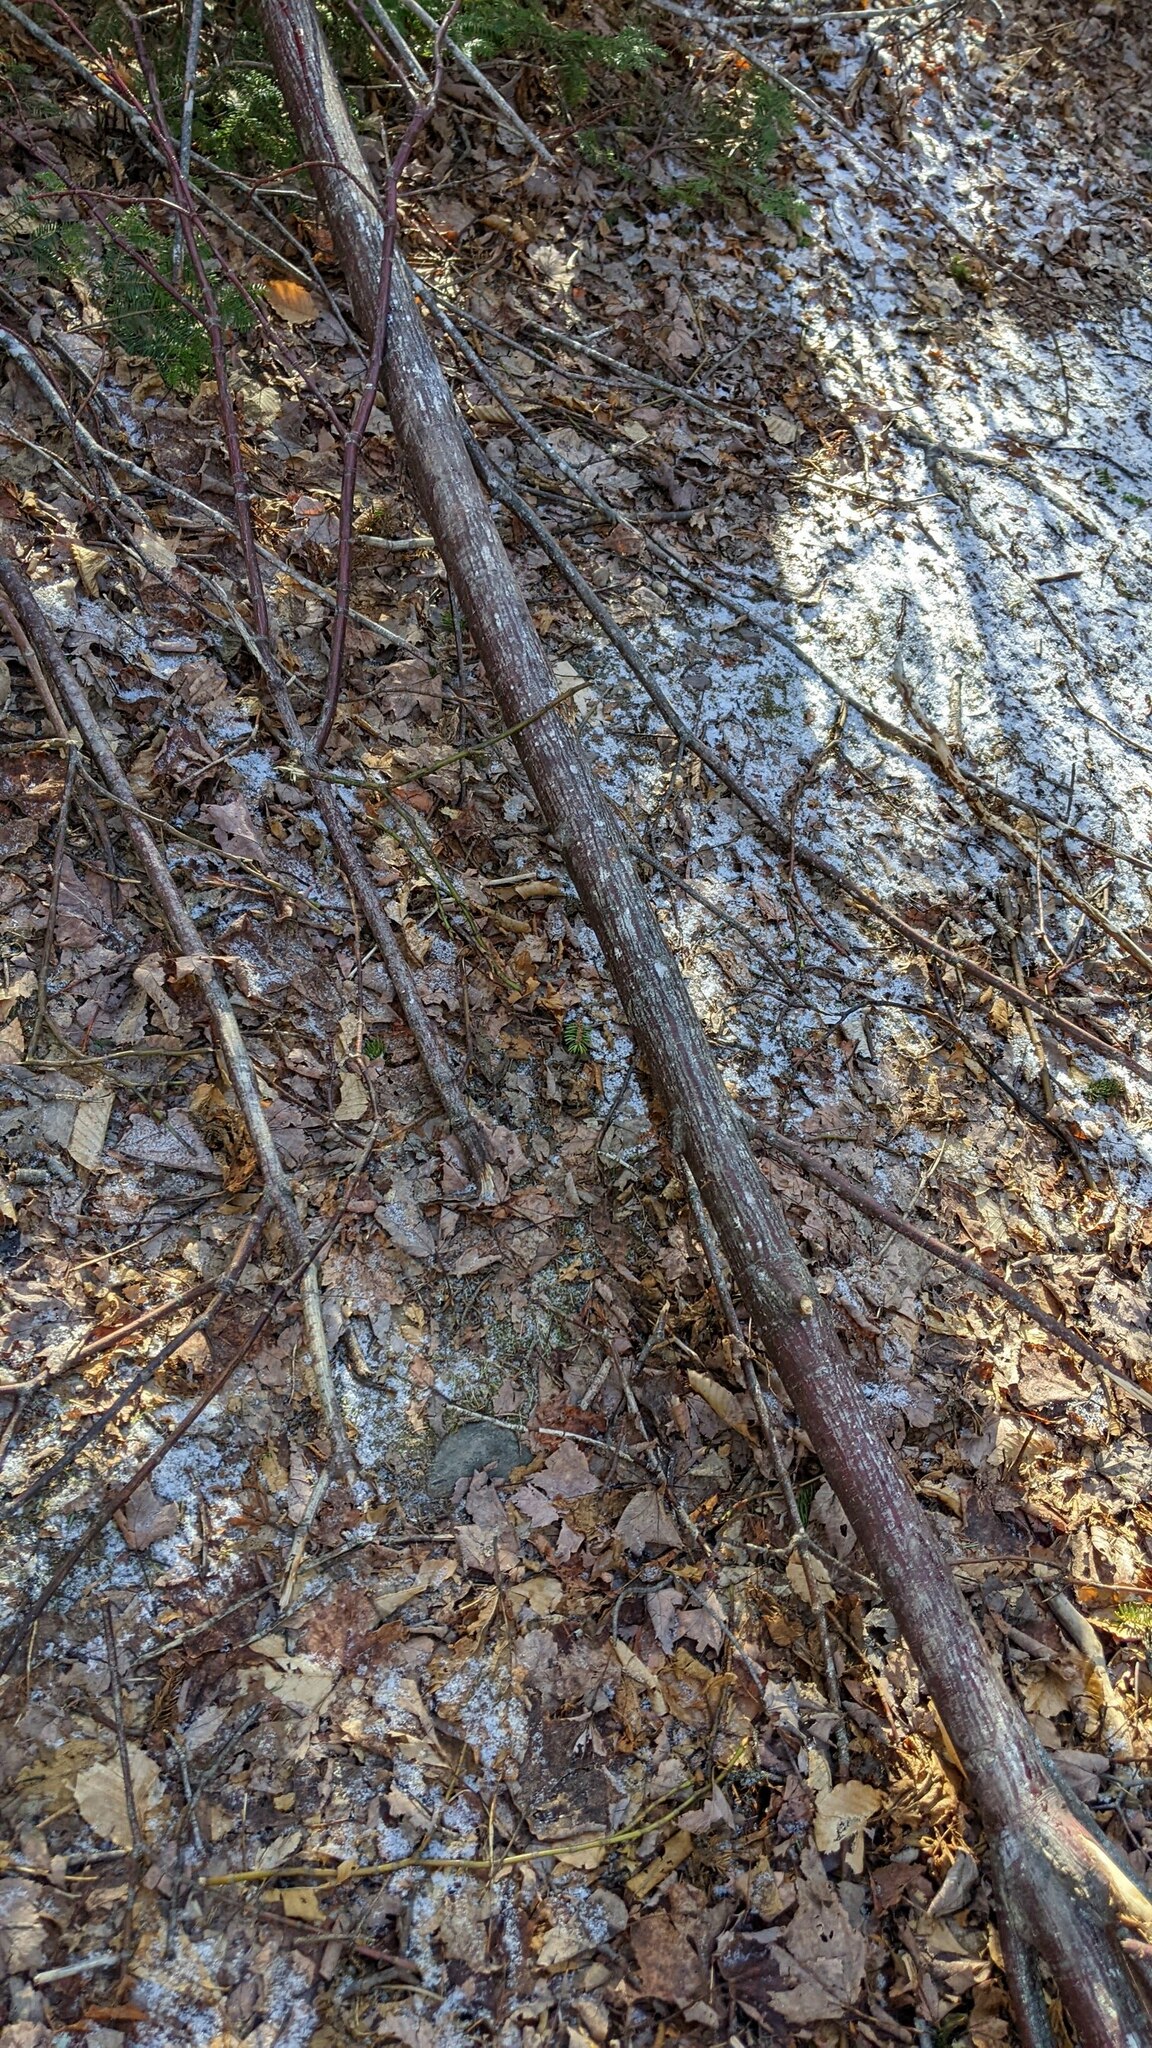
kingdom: Plantae
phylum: Tracheophyta
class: Magnoliopsida
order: Sapindales
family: Sapindaceae
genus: Acer
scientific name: Acer pensylvanicum
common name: Moosewood
